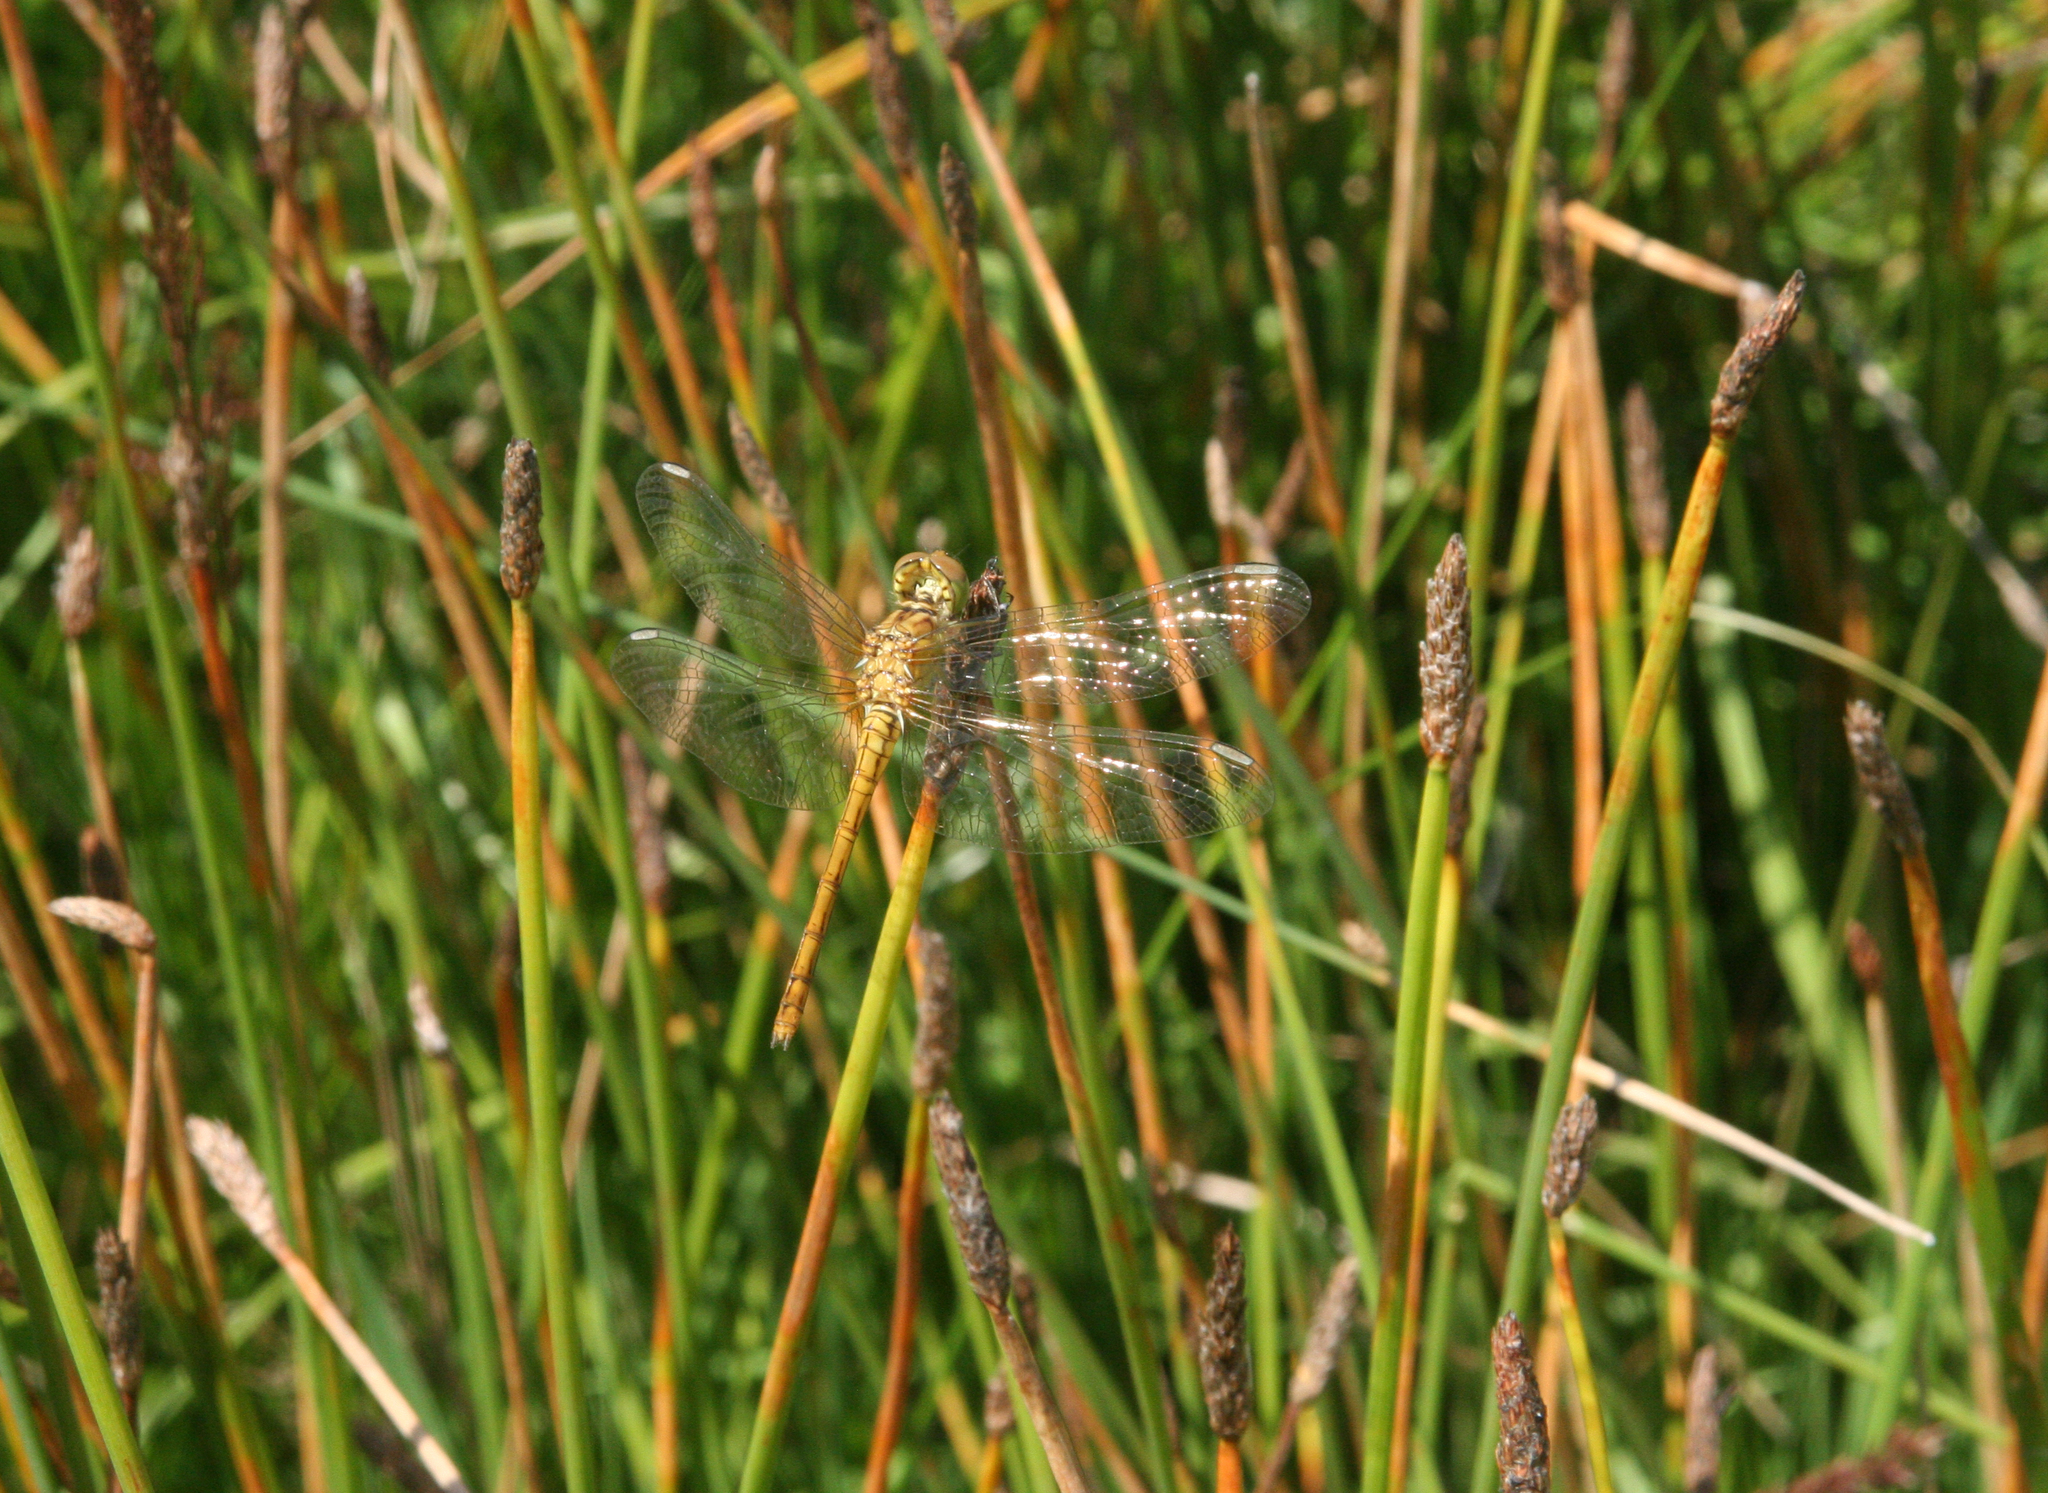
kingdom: Animalia
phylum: Arthropoda
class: Insecta
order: Odonata
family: Libellulidae
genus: Sympetrum
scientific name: Sympetrum meridionale
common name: Southern darter
